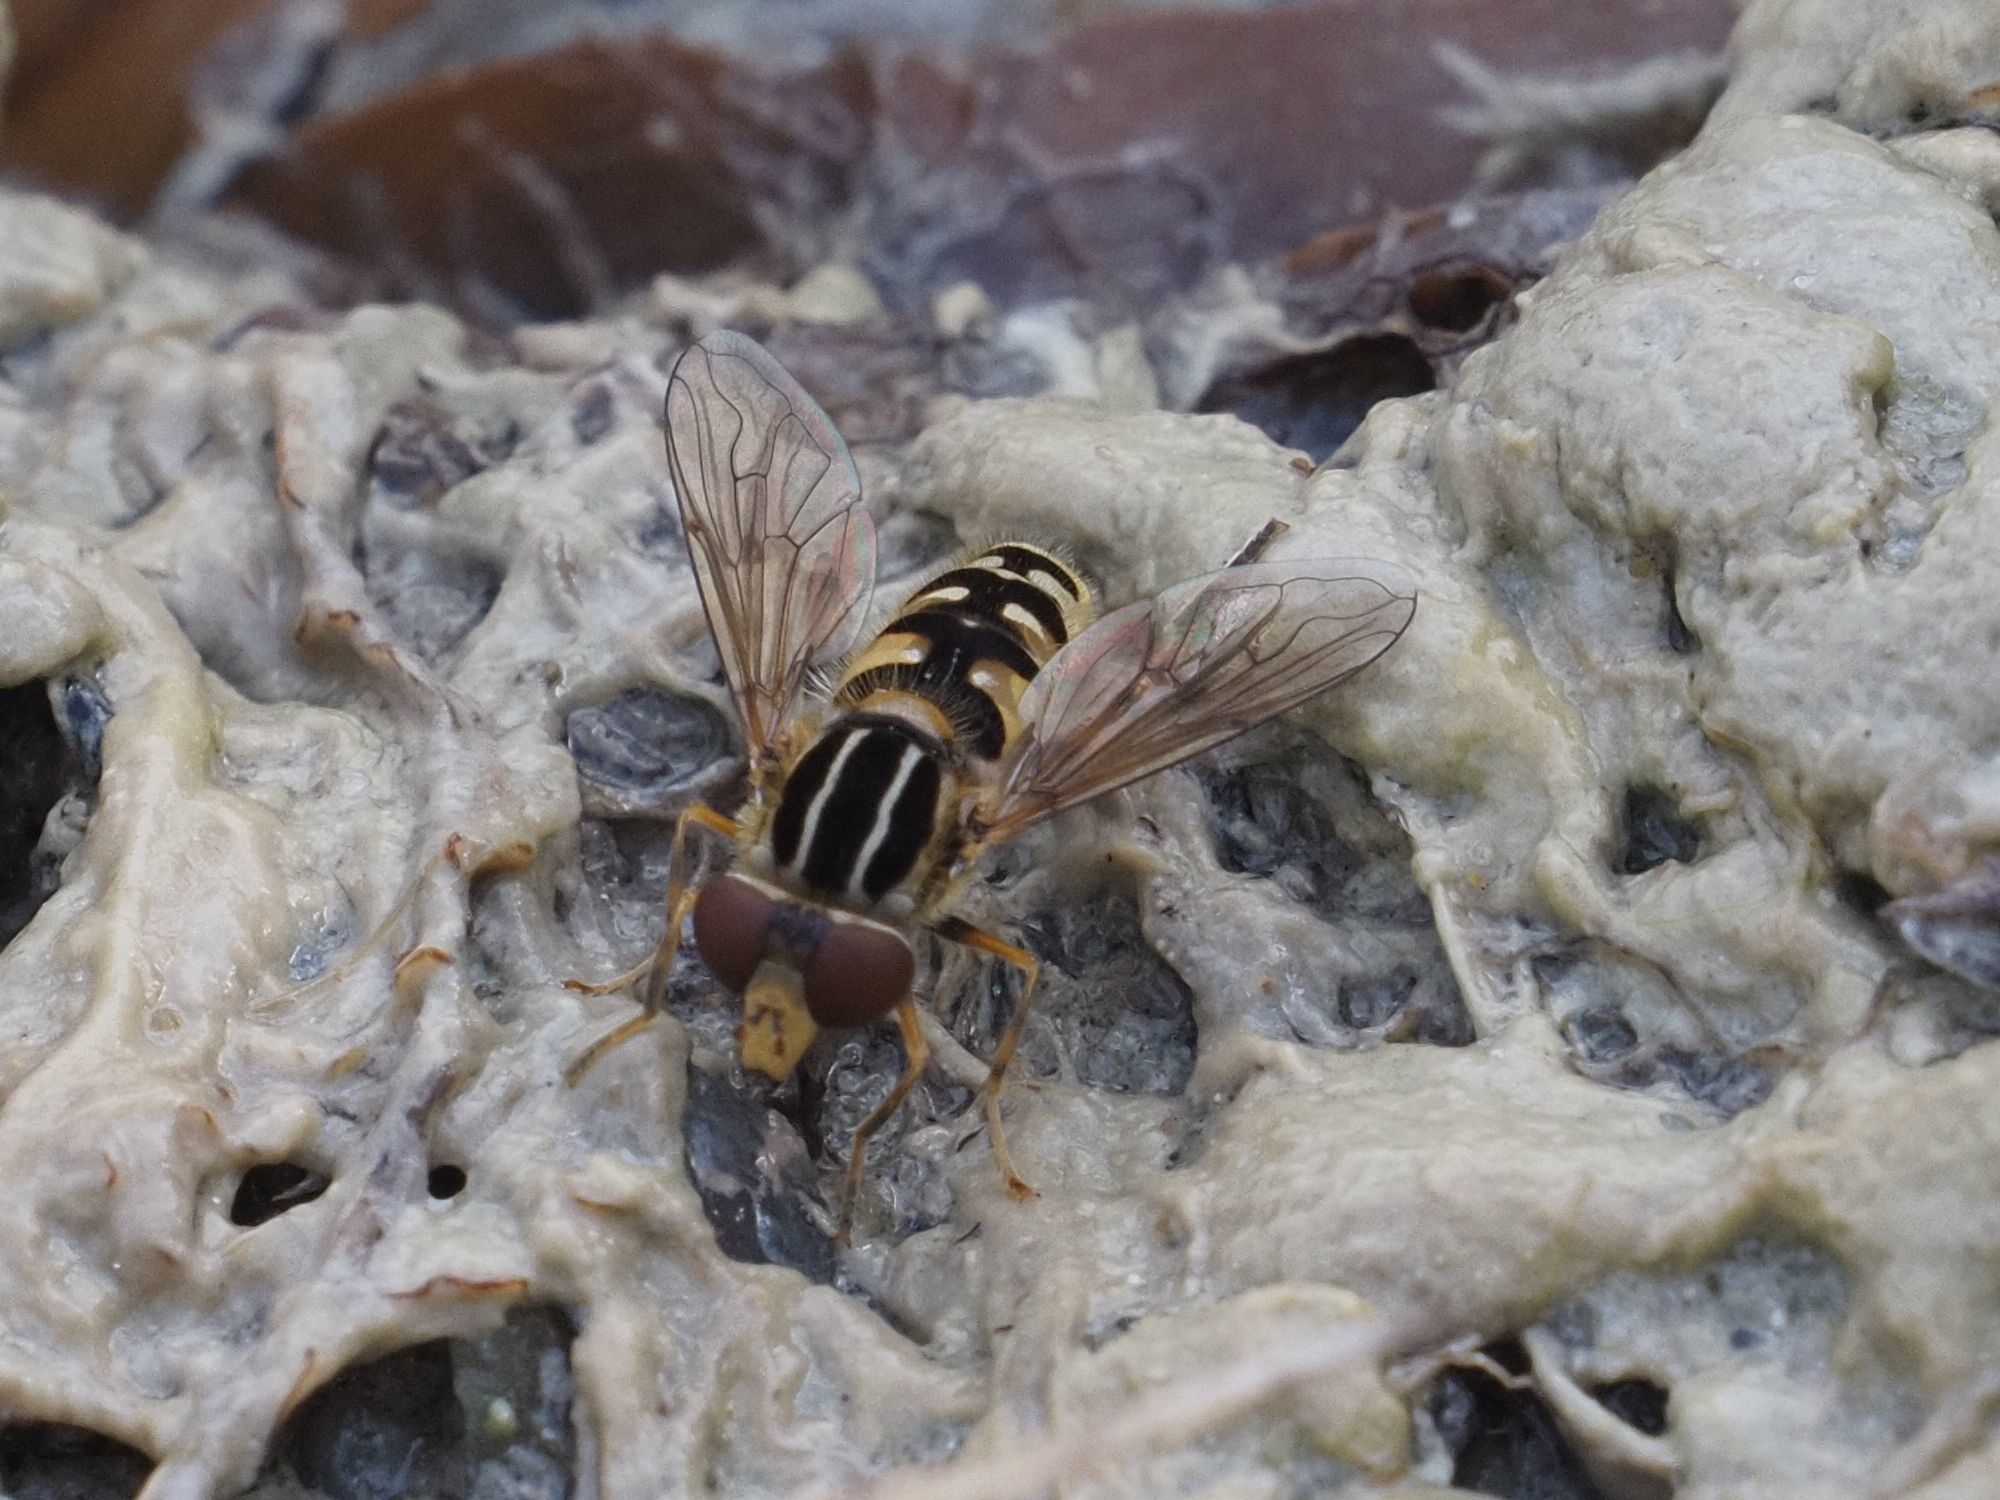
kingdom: Animalia
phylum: Arthropoda
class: Insecta
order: Diptera
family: Syrphidae
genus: Eurimyia
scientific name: Eurimyia lineatus
